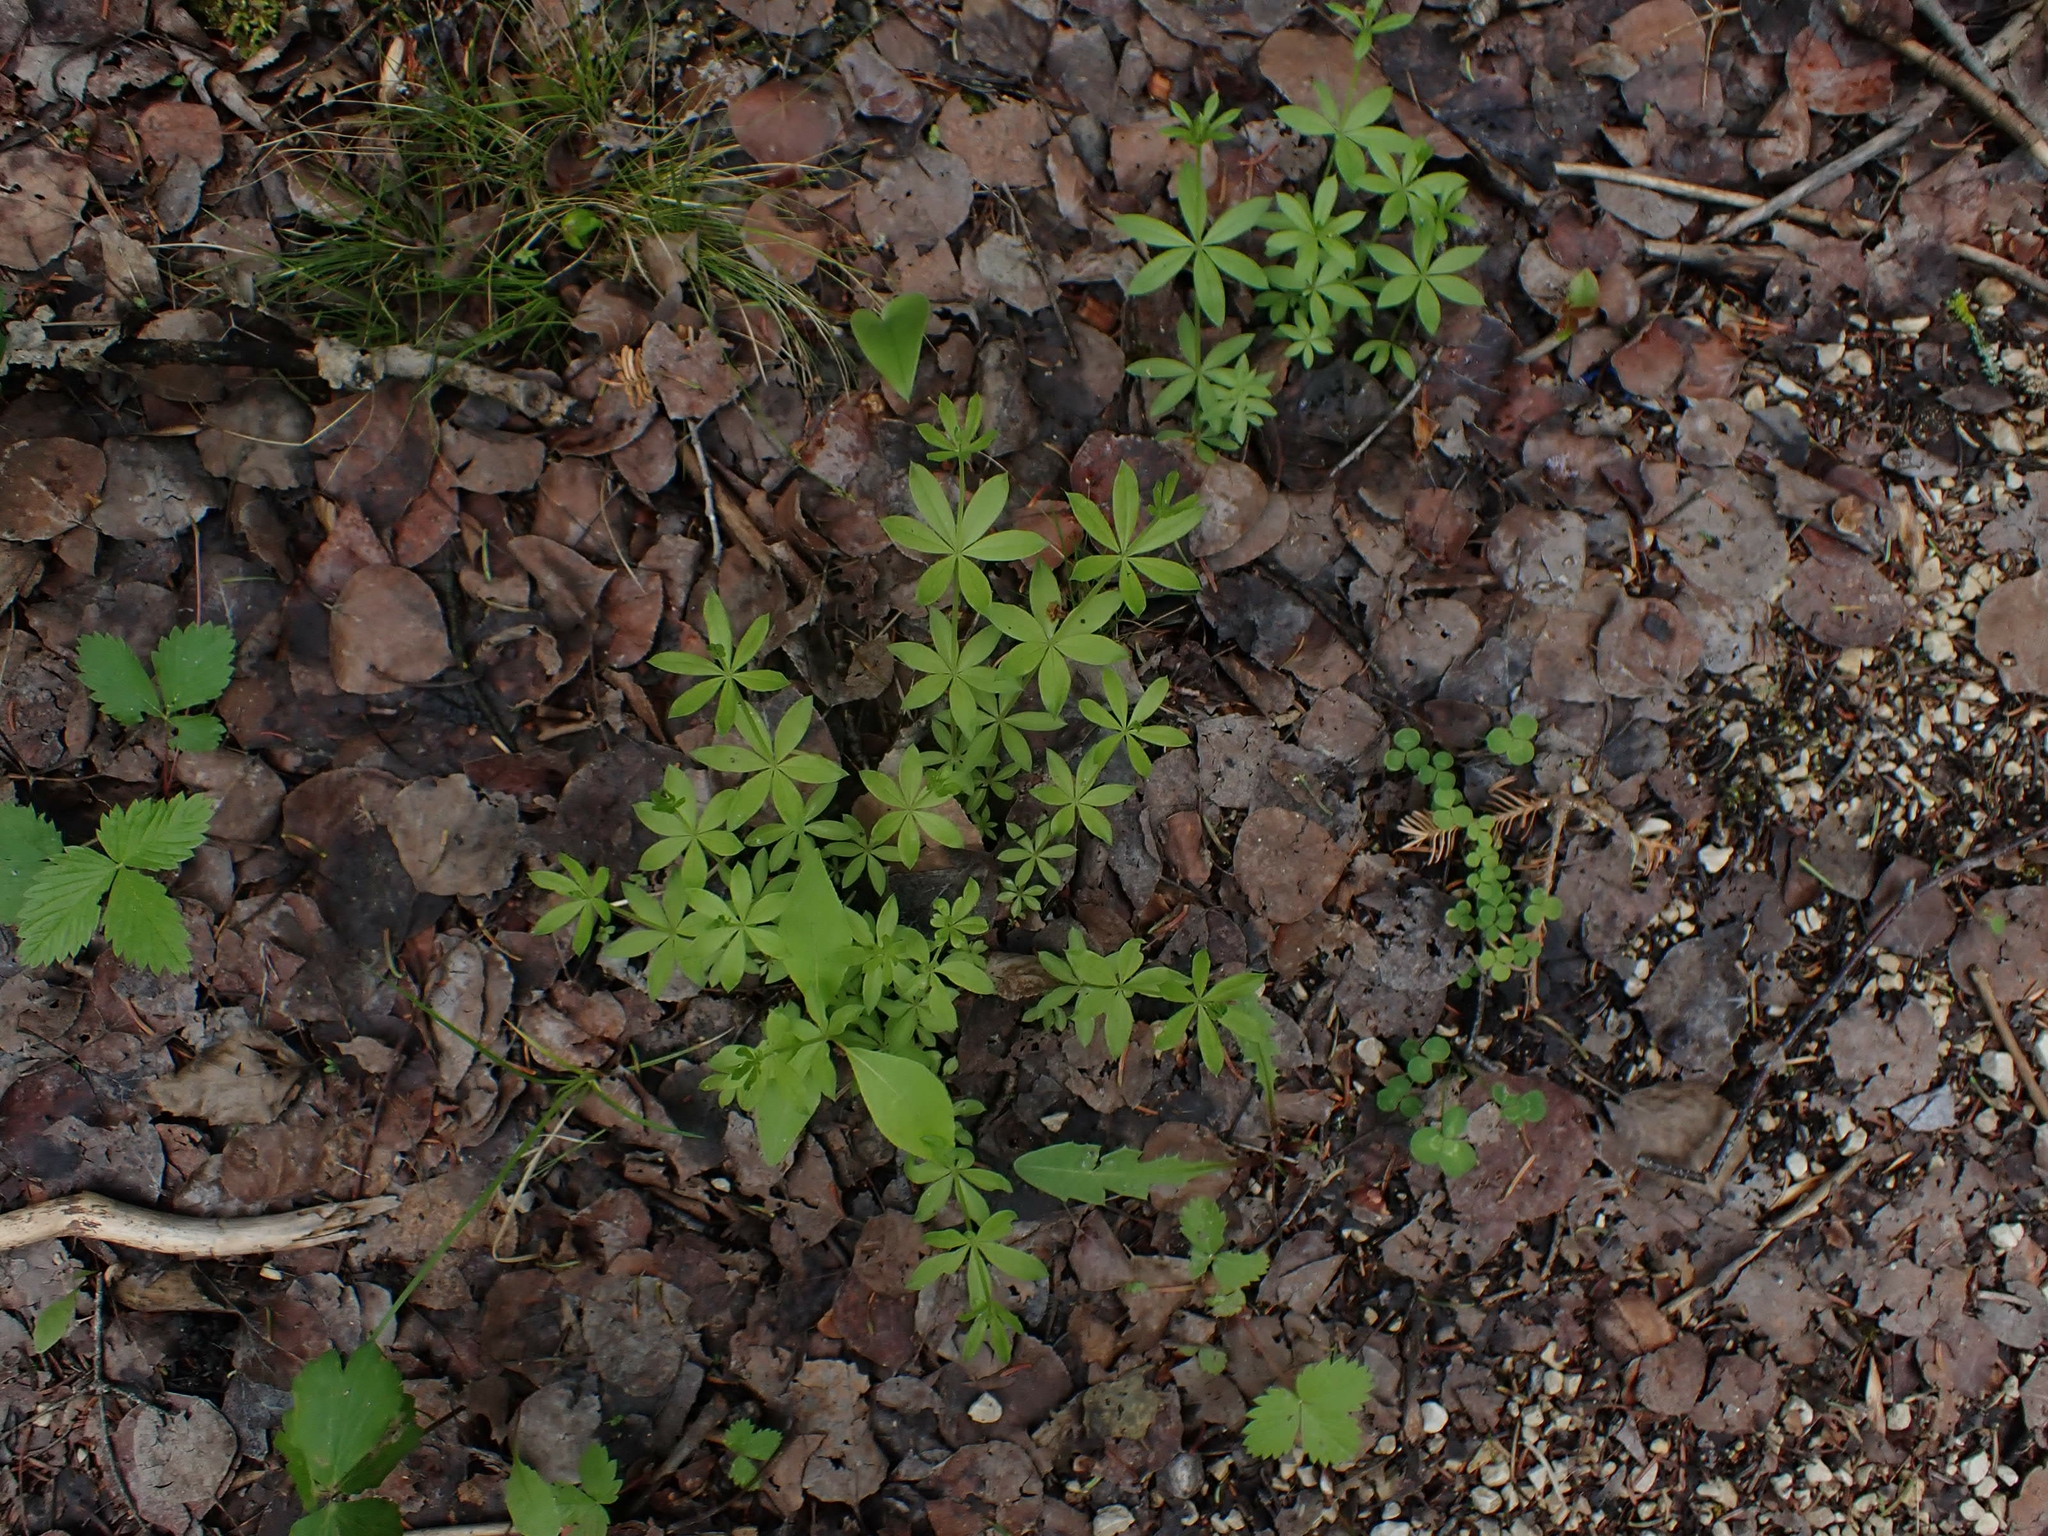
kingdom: Plantae
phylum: Tracheophyta
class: Magnoliopsida
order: Gentianales
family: Rubiaceae
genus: Galium
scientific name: Galium triflorum
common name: Fragrant bedstraw
